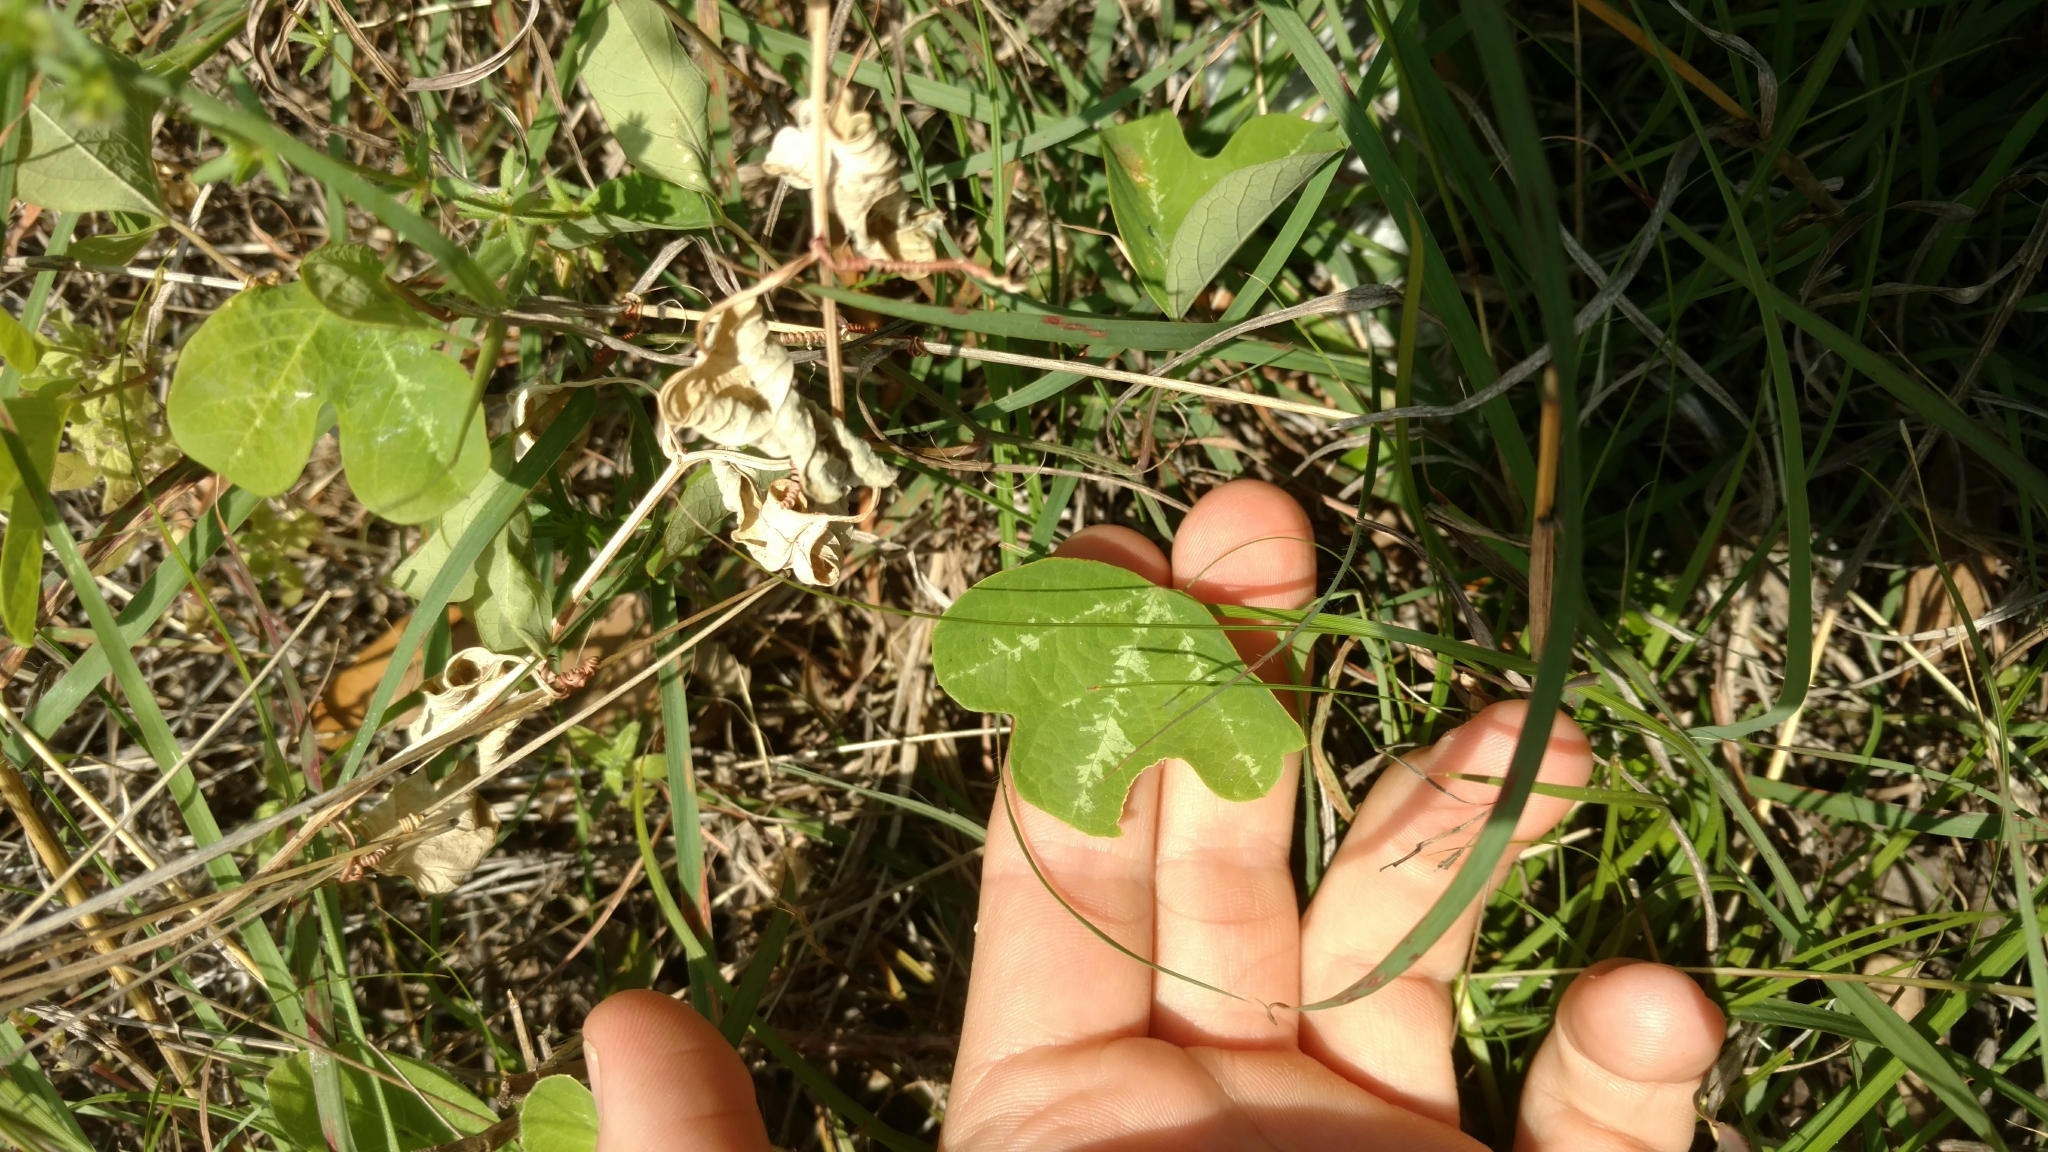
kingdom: Plantae
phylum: Tracheophyta
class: Magnoliopsida
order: Malpighiales
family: Passifloraceae
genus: Passiflora
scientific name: Passiflora lutea
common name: Yellow passionflower
